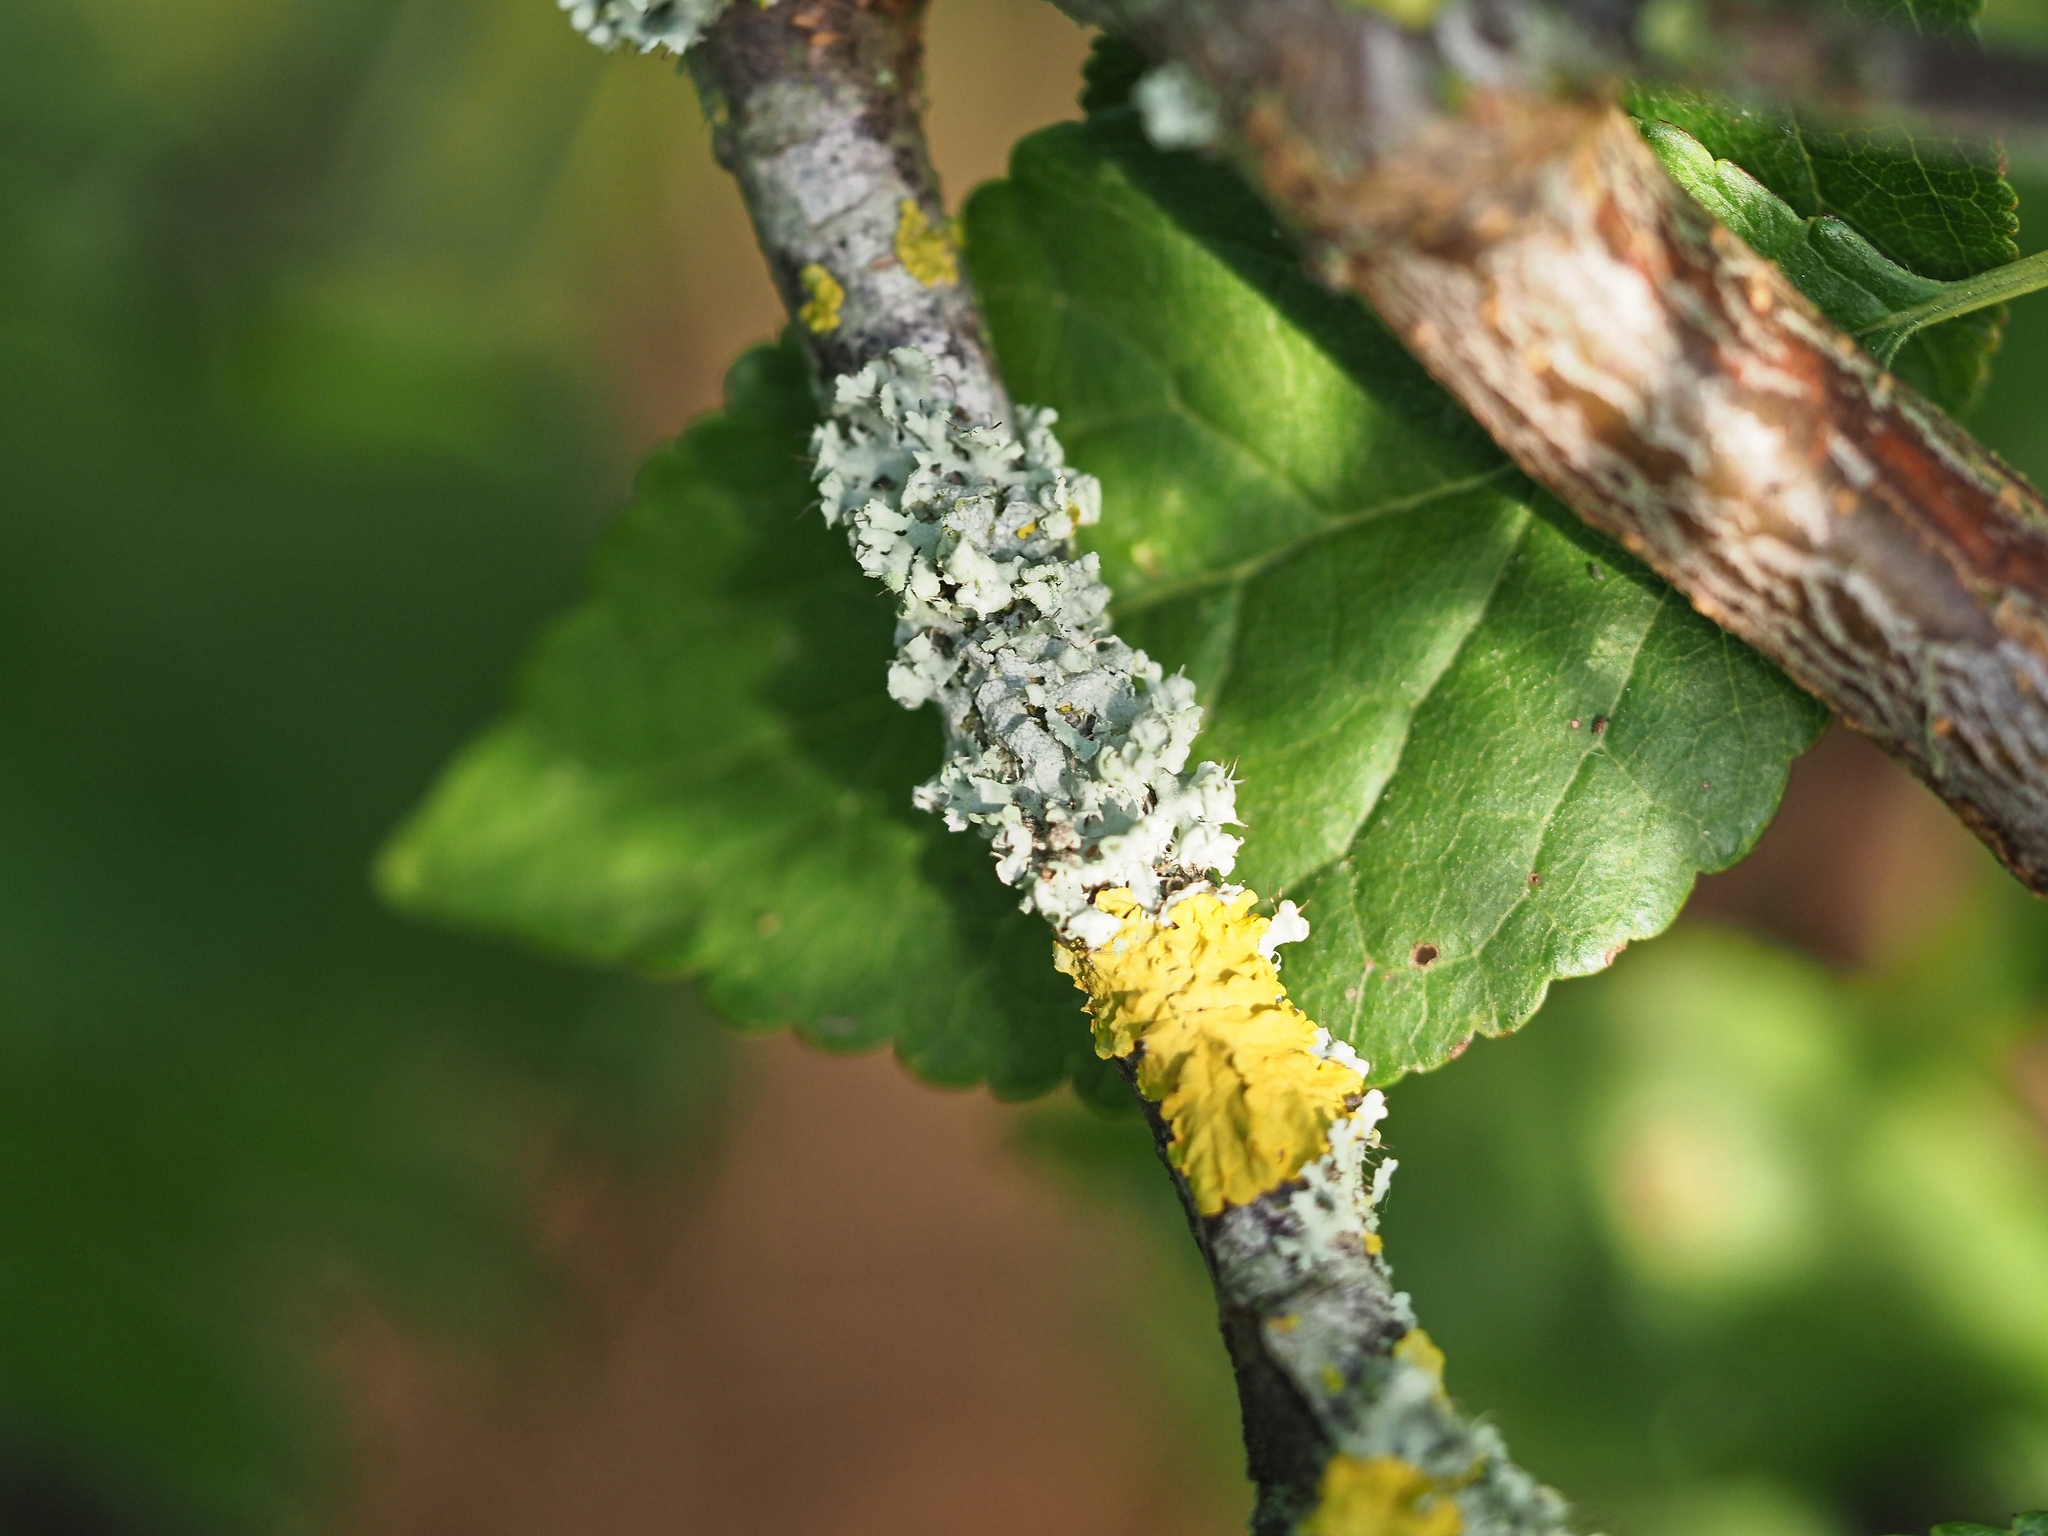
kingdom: Fungi
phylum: Ascomycota
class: Lecanoromycetes
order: Caliciales
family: Physciaceae
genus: Physcia
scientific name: Physcia adscendens
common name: Hooded rosette lichen
